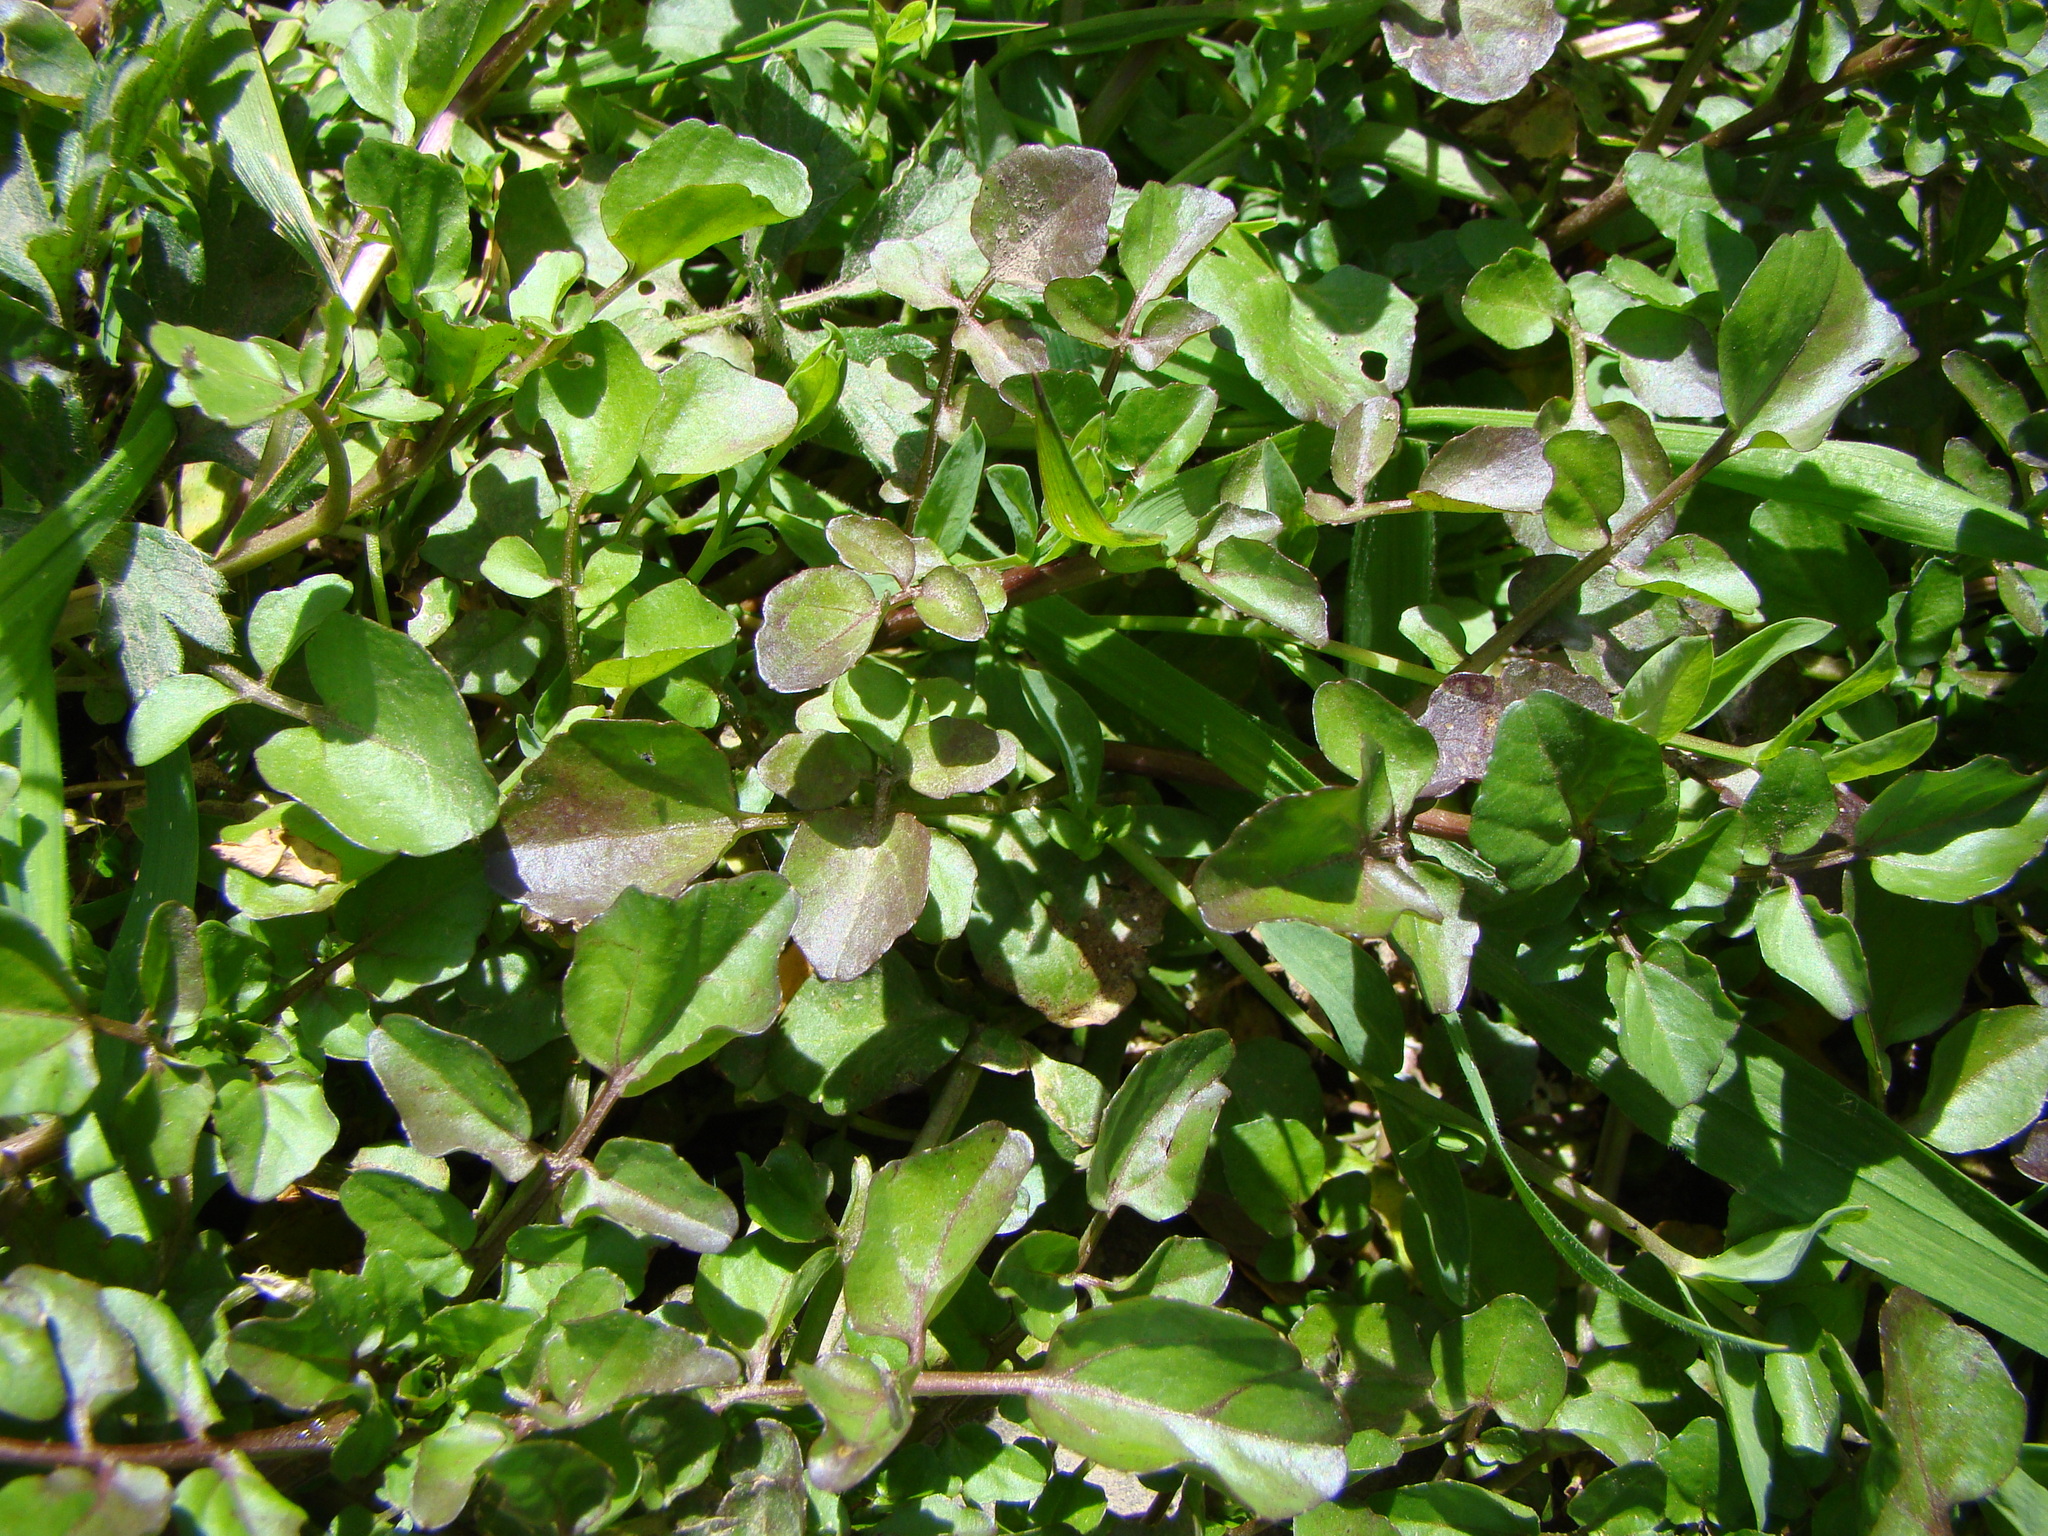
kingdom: Plantae
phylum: Tracheophyta
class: Magnoliopsida
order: Brassicales
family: Brassicaceae
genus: Nasturtium
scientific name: Nasturtium officinale
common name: Watercress
